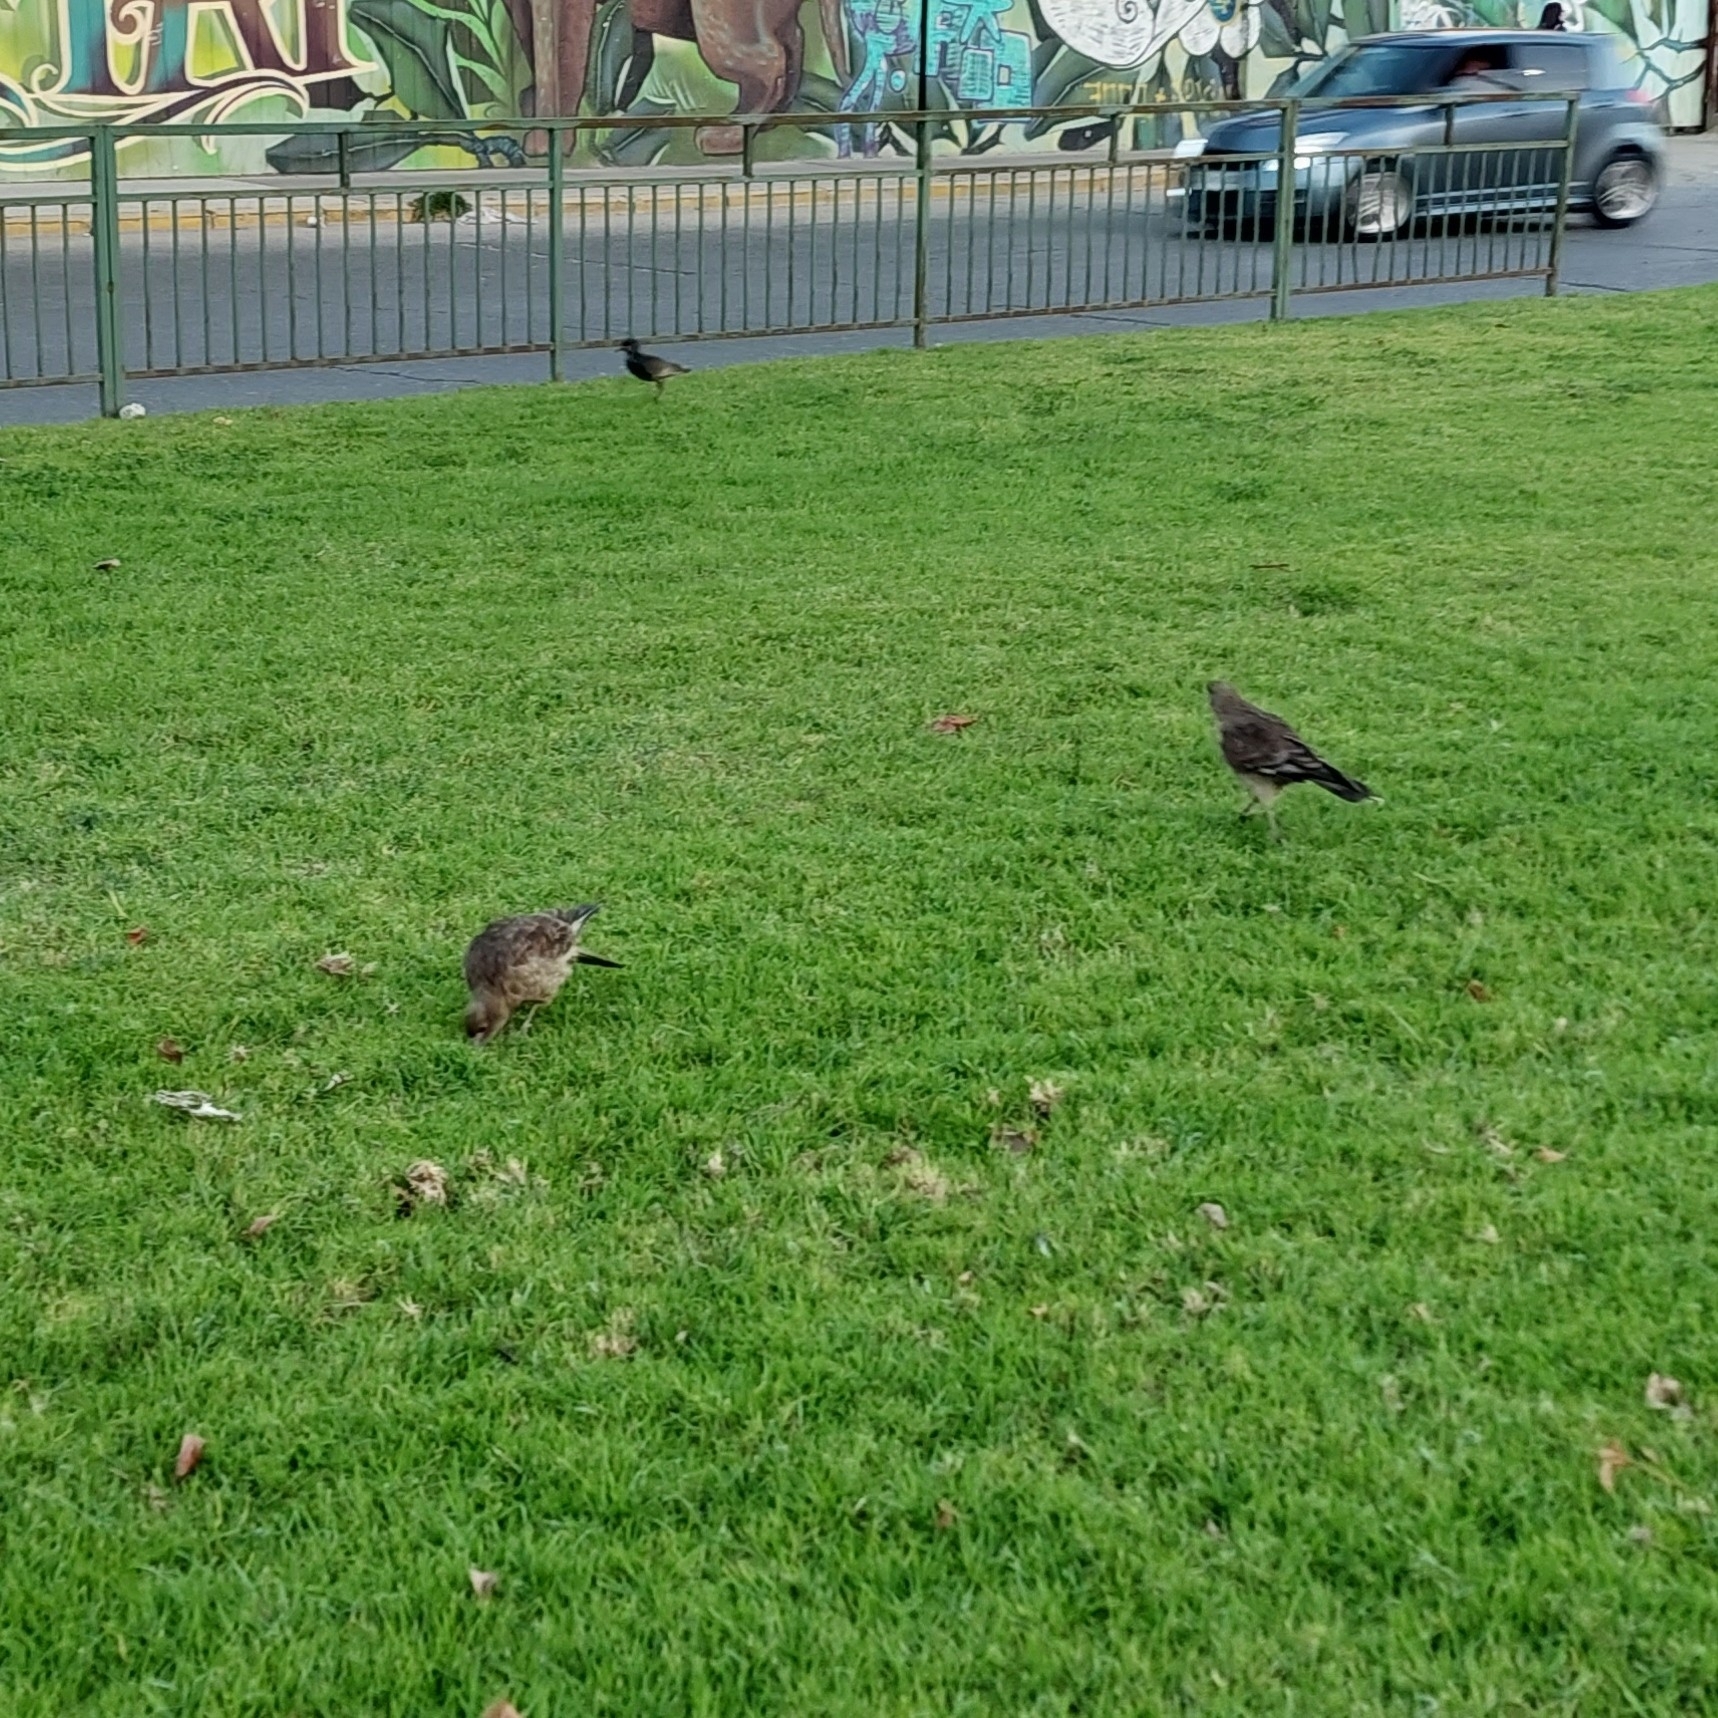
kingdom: Animalia
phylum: Chordata
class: Aves
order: Falconiformes
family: Falconidae
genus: Daptrius
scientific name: Daptrius
